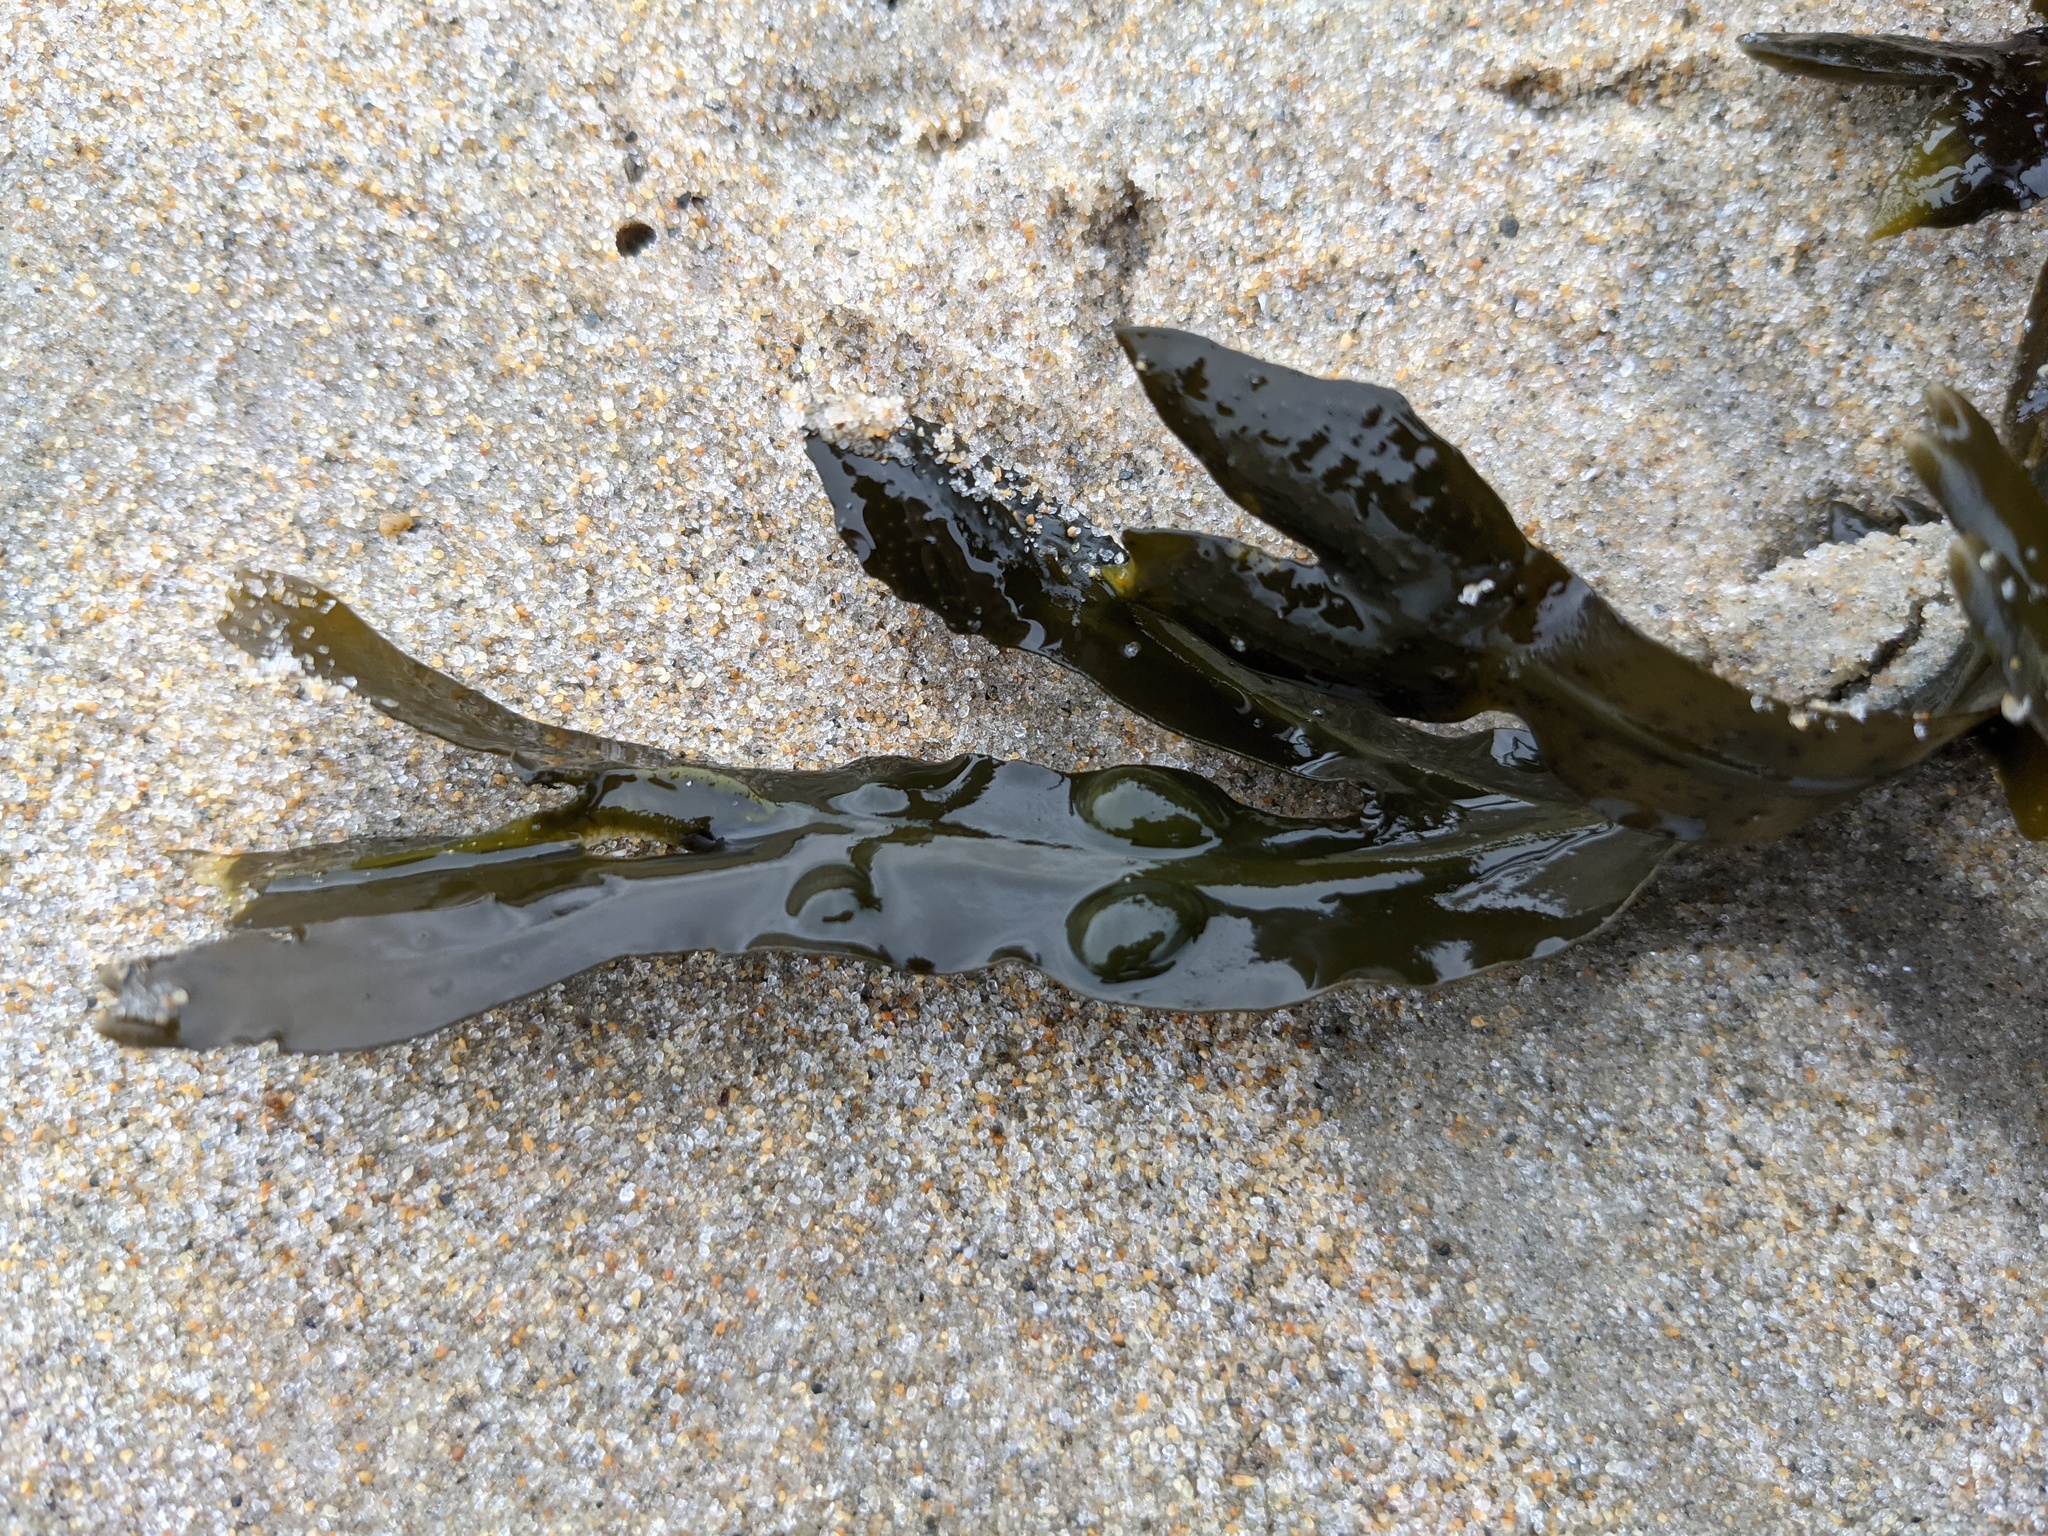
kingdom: Chromista
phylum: Ochrophyta
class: Phaeophyceae
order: Fucales
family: Fucaceae
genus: Fucus
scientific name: Fucus vesiculosus
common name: Bladder wrack
